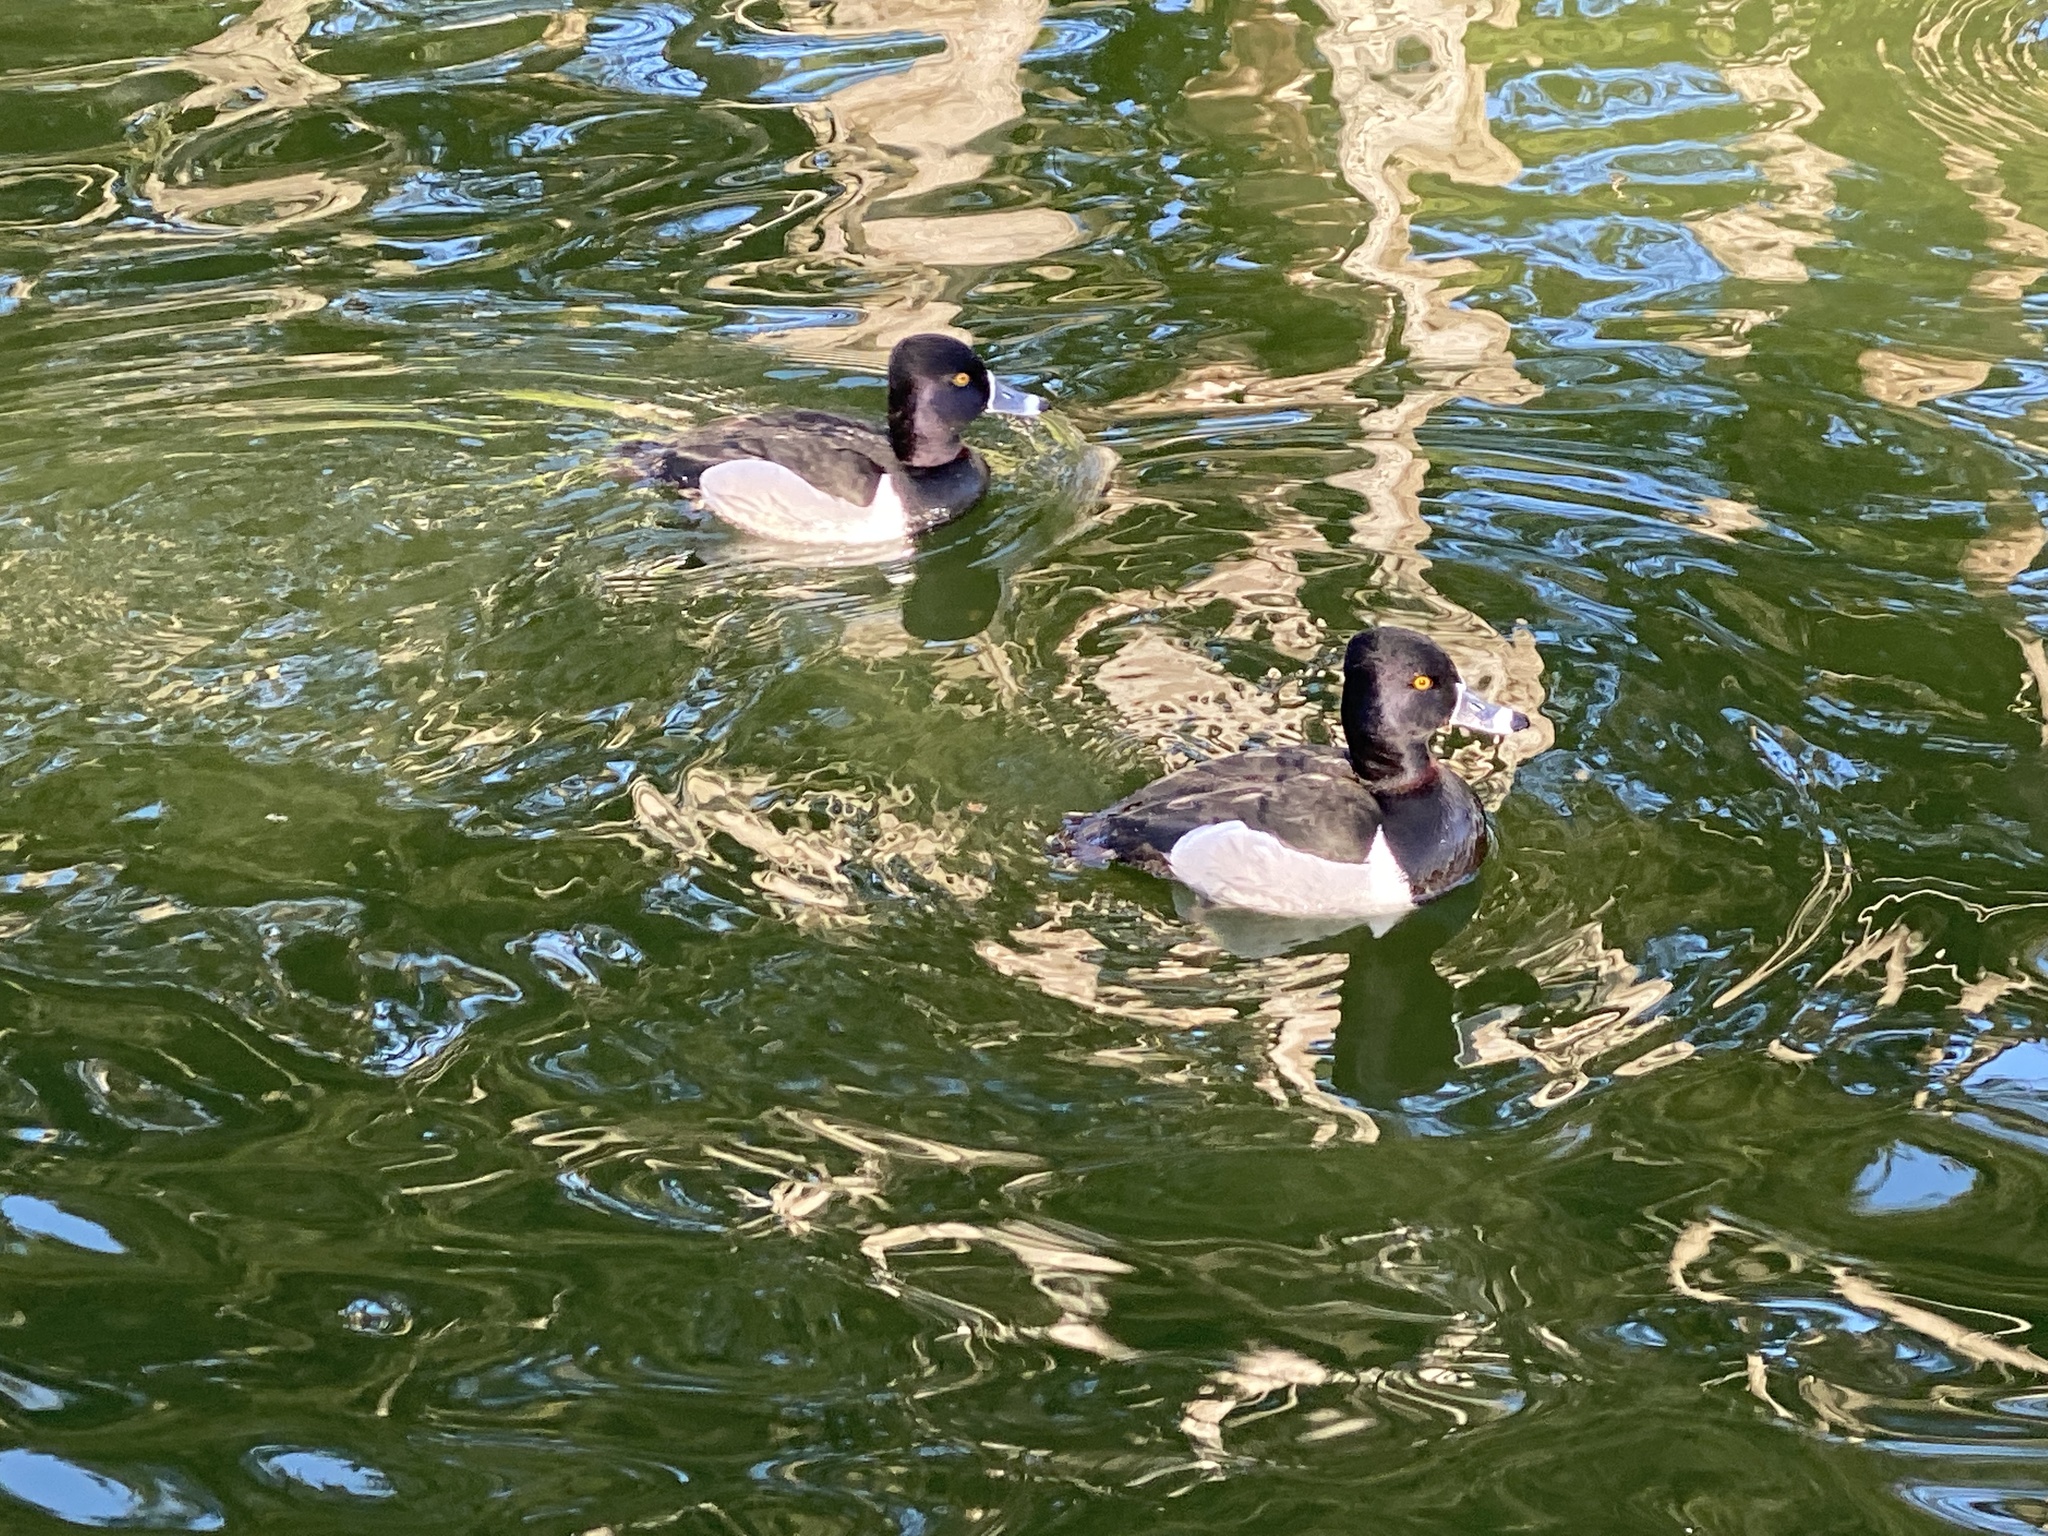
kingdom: Animalia
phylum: Chordata
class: Aves
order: Anseriformes
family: Anatidae
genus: Aythya
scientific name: Aythya collaris
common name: Ring-necked duck
